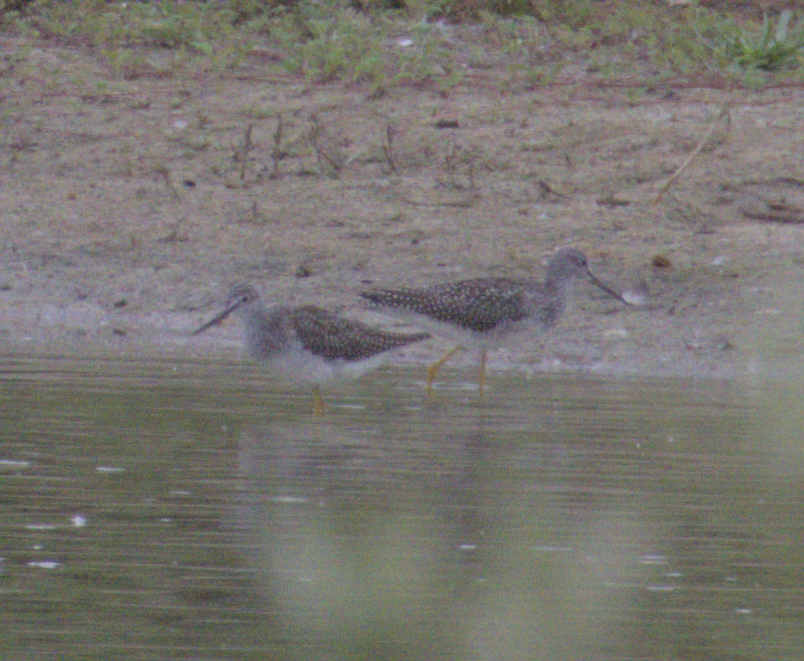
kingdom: Animalia
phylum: Chordata
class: Aves
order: Charadriiformes
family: Scolopacidae
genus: Tringa
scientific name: Tringa melanoleuca
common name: Greater yellowlegs
